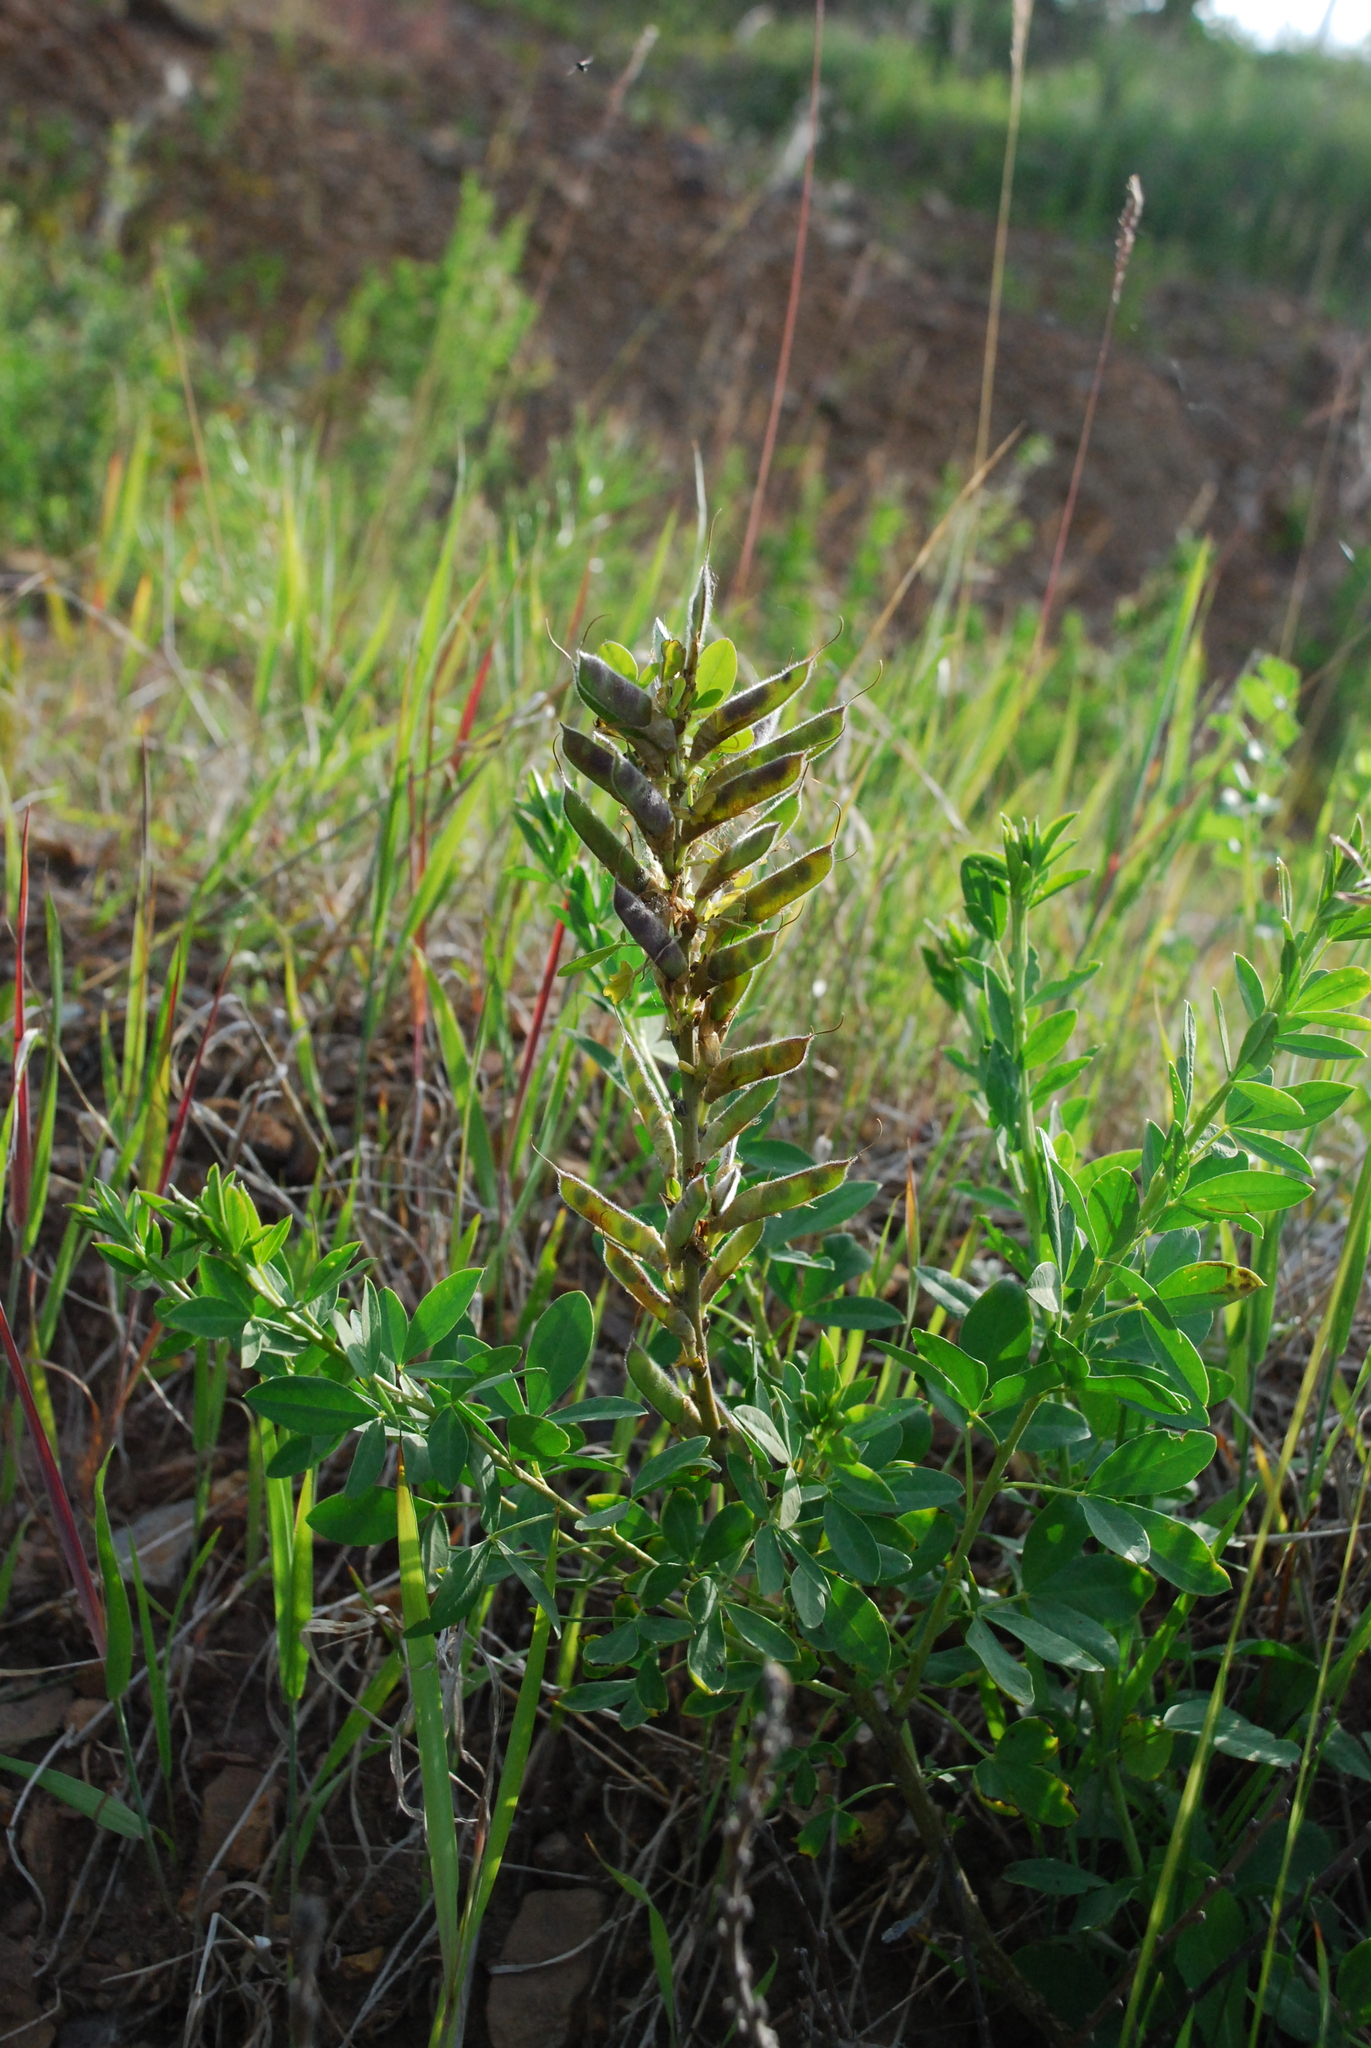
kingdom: Plantae
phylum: Tracheophyta
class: Magnoliopsida
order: Fabales
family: Fabaceae
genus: Chamaecytisus
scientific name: Chamaecytisus ruthenicus
